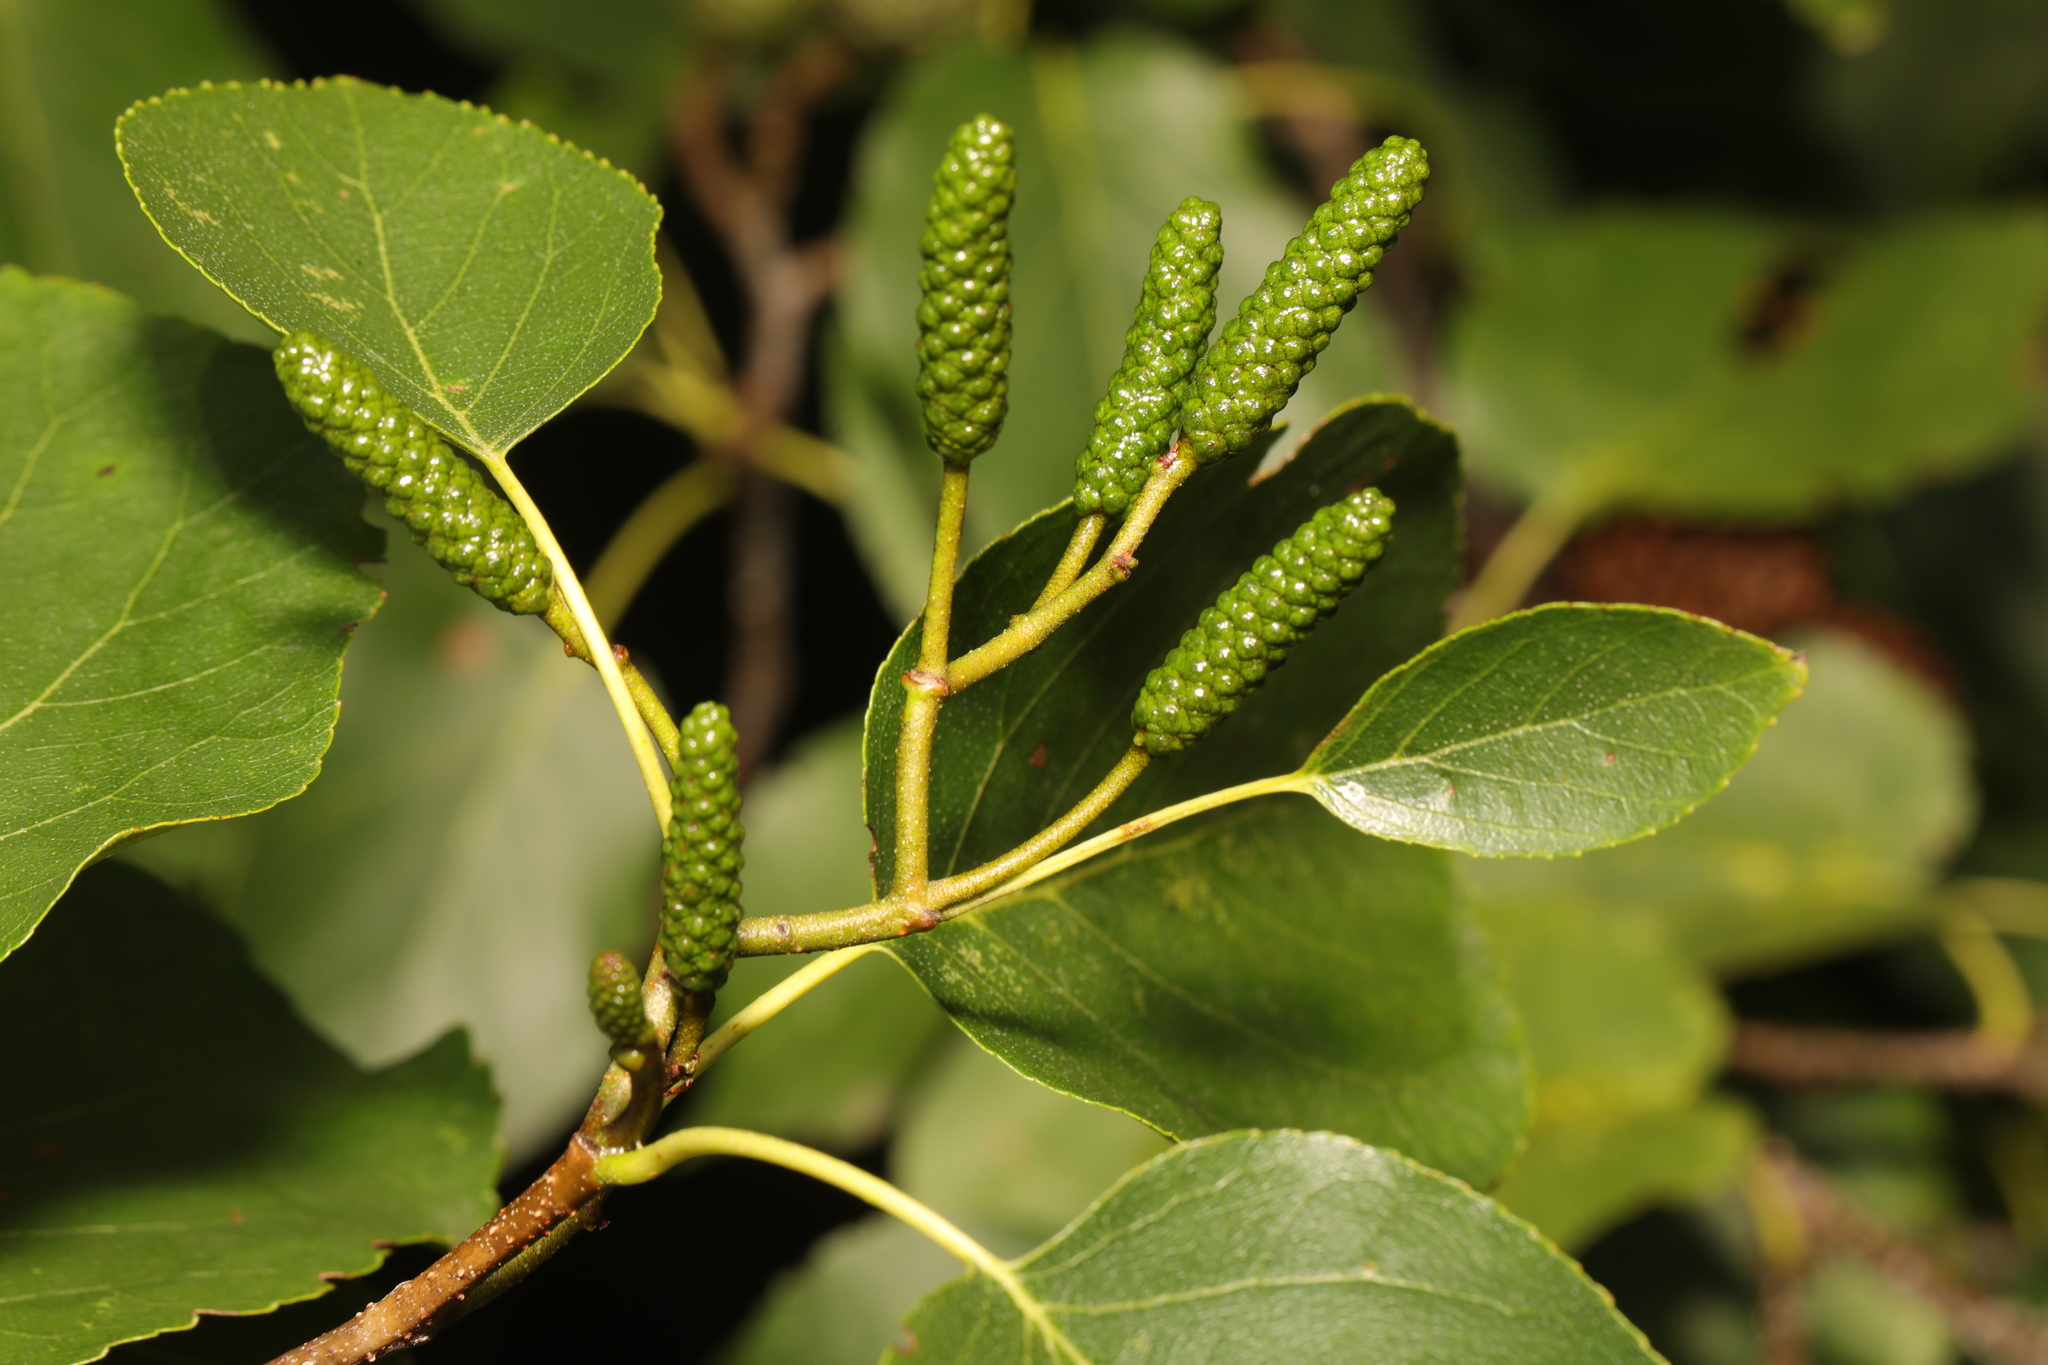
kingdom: Plantae
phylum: Tracheophyta
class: Magnoliopsida
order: Fagales
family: Betulaceae
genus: Alnus
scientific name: Alnus cordata
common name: Italian alder
